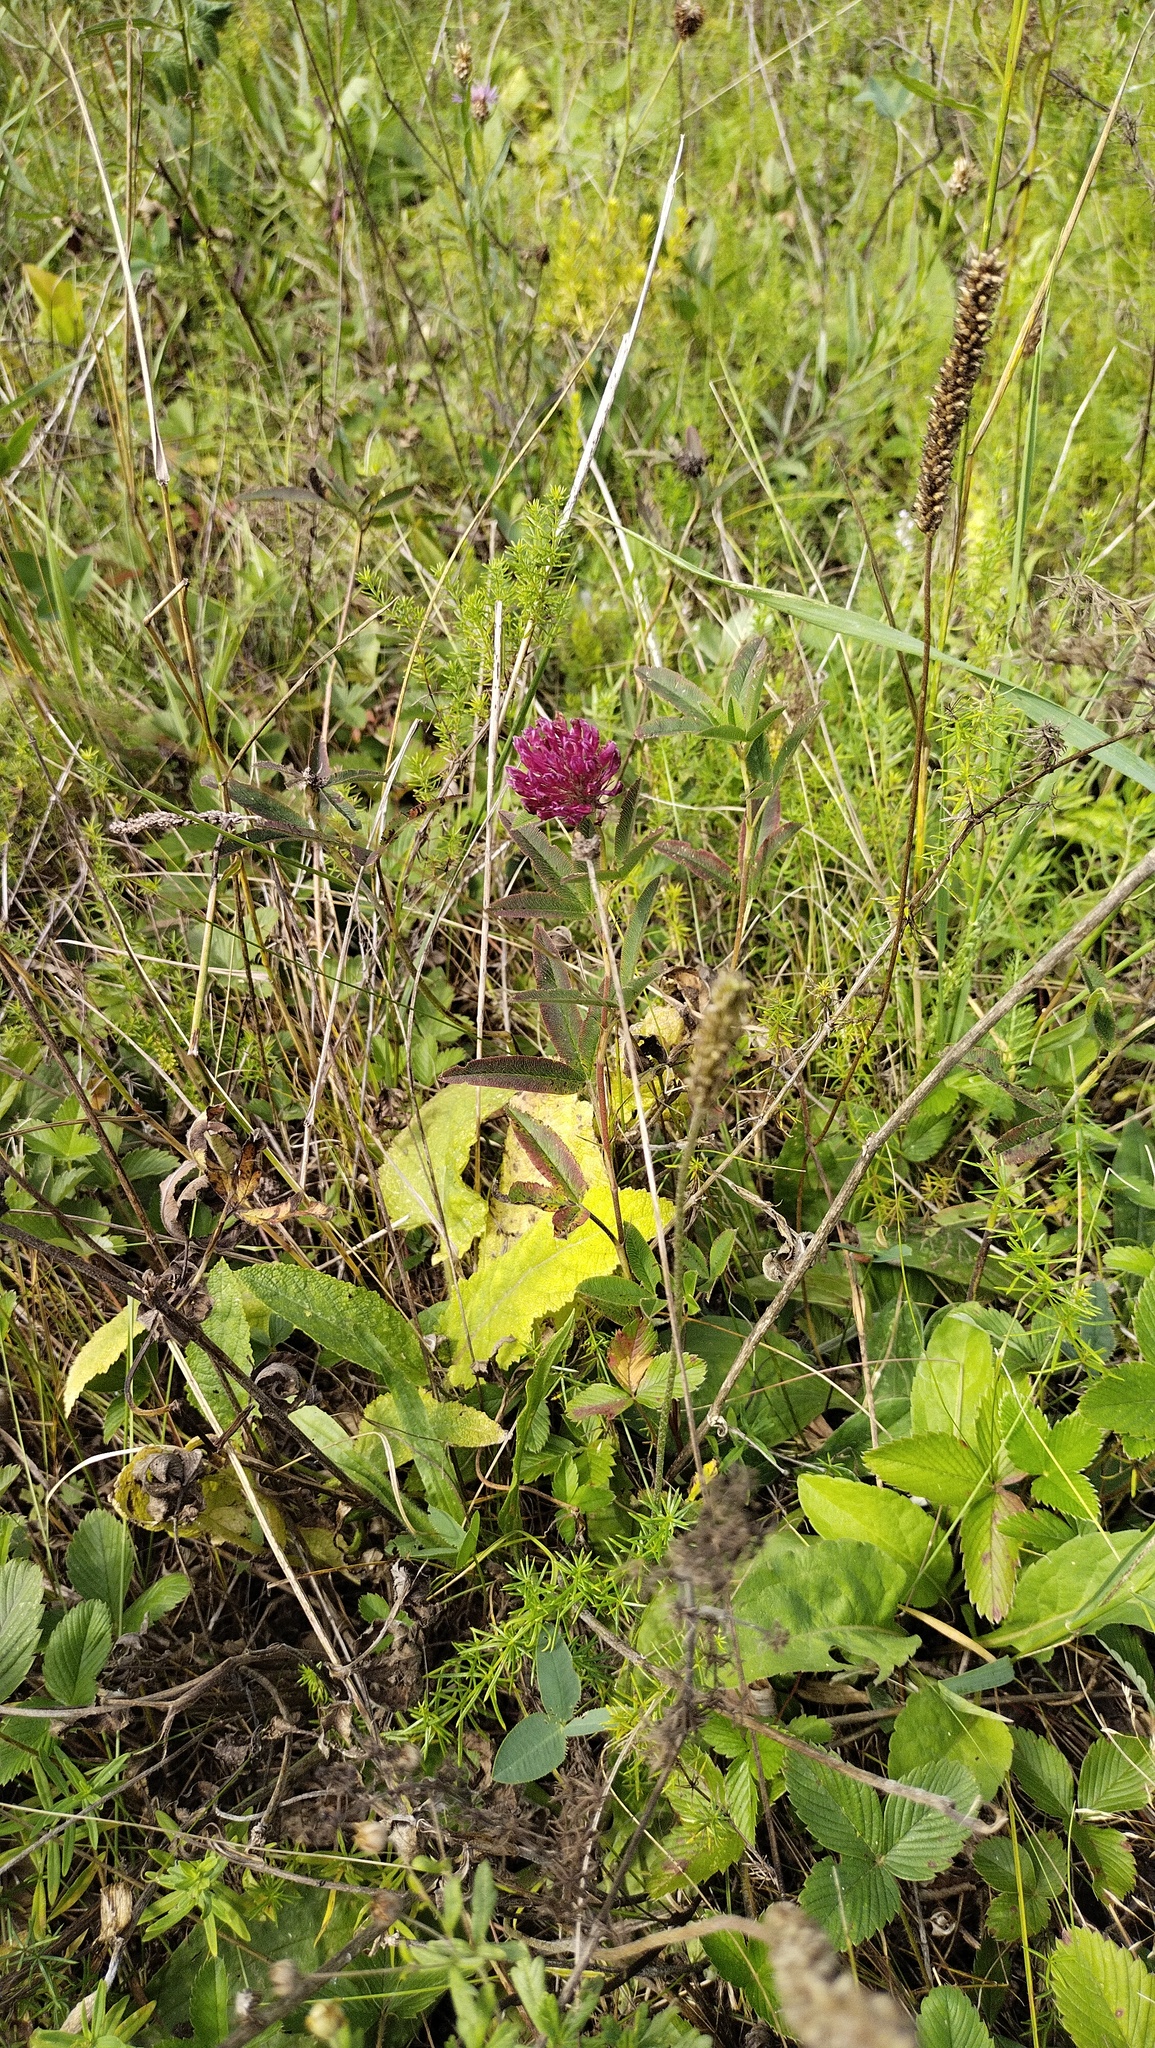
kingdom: Plantae
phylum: Tracheophyta
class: Magnoliopsida
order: Fabales
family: Fabaceae
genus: Trifolium
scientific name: Trifolium alpestre
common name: Owl-head clover
